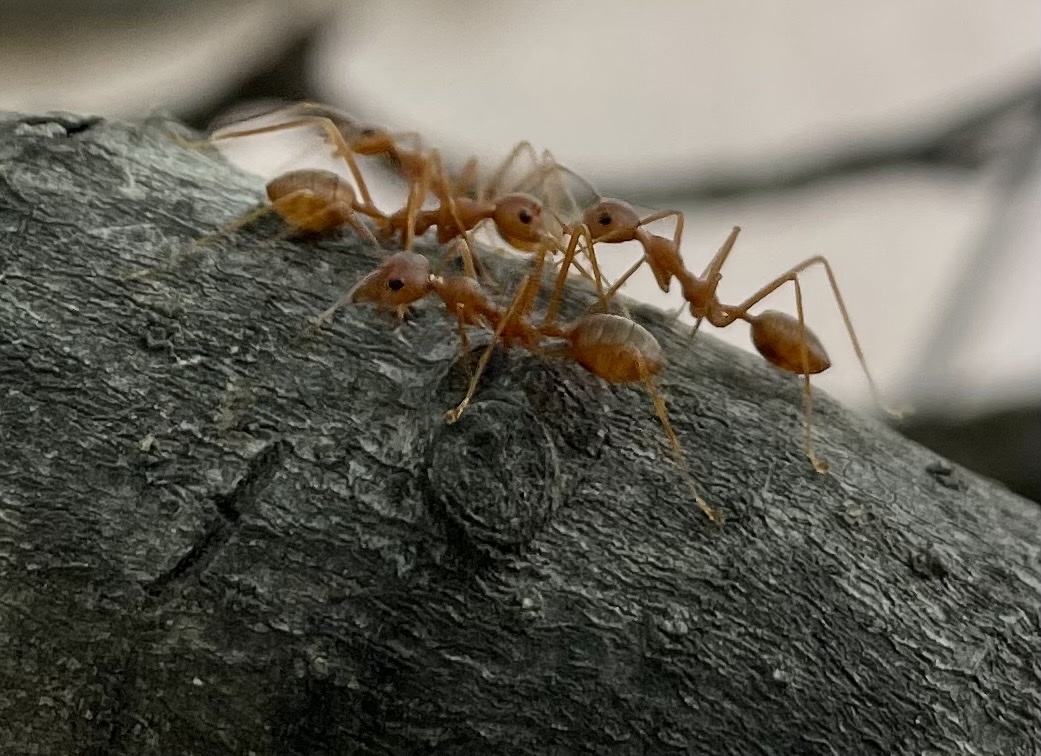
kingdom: Animalia
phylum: Arthropoda
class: Insecta
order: Hymenoptera
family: Formicidae
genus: Oecophylla
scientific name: Oecophylla smaragdina
